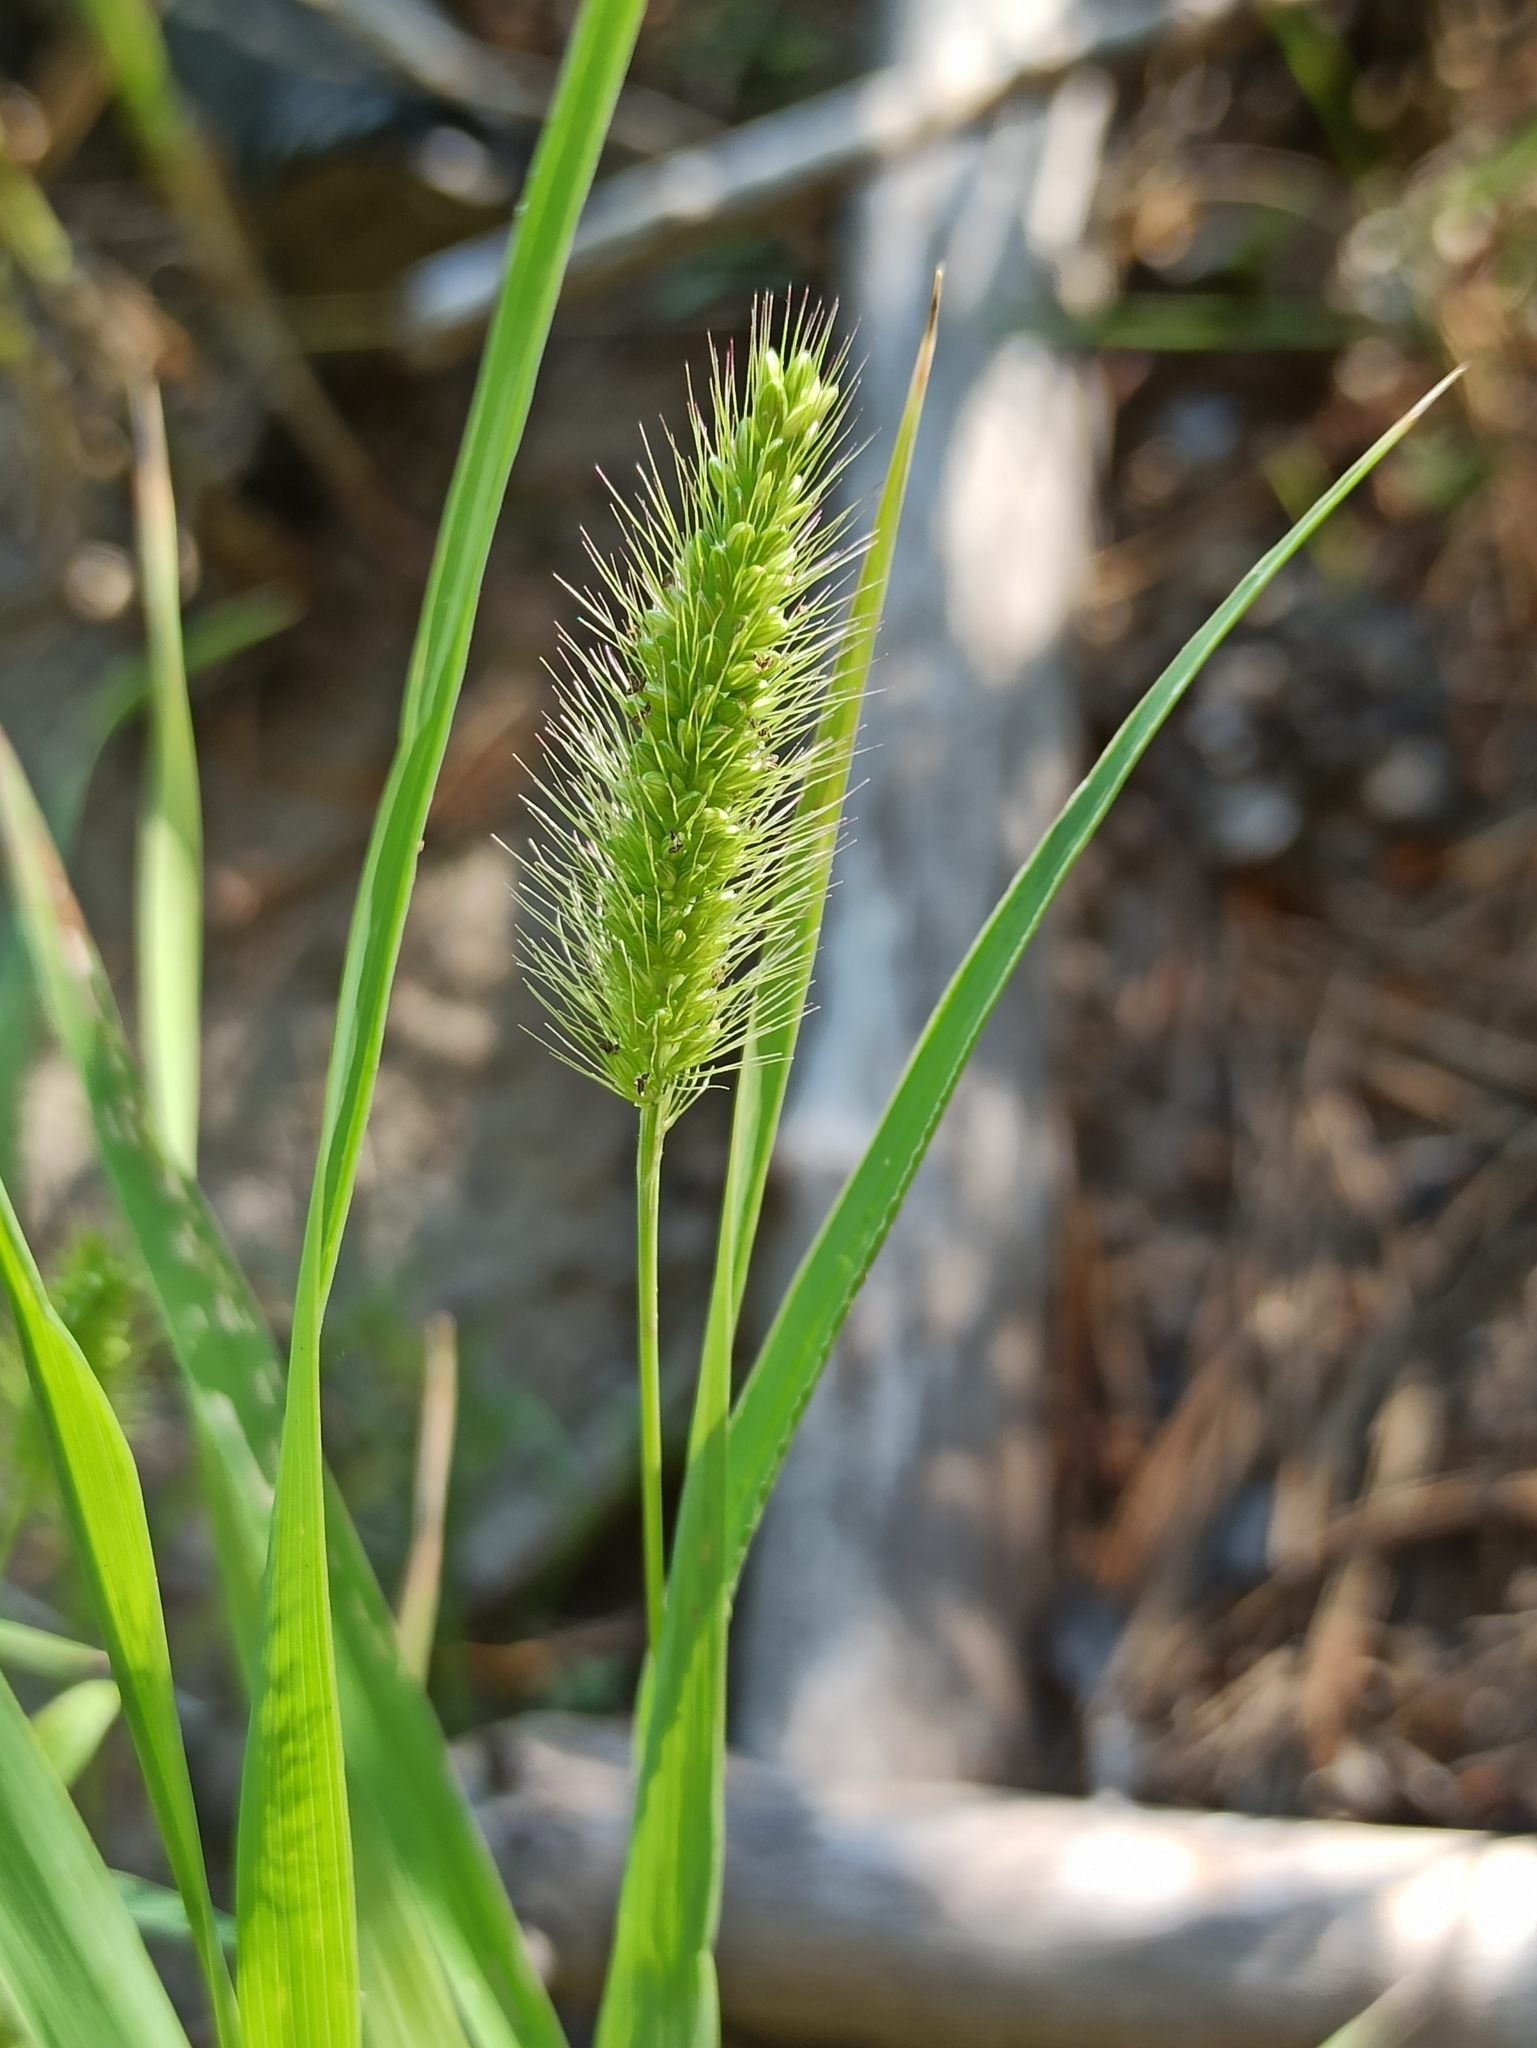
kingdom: Plantae
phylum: Tracheophyta
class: Liliopsida
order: Poales
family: Poaceae
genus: Setaria
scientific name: Setaria viridis
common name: Green bristlegrass
